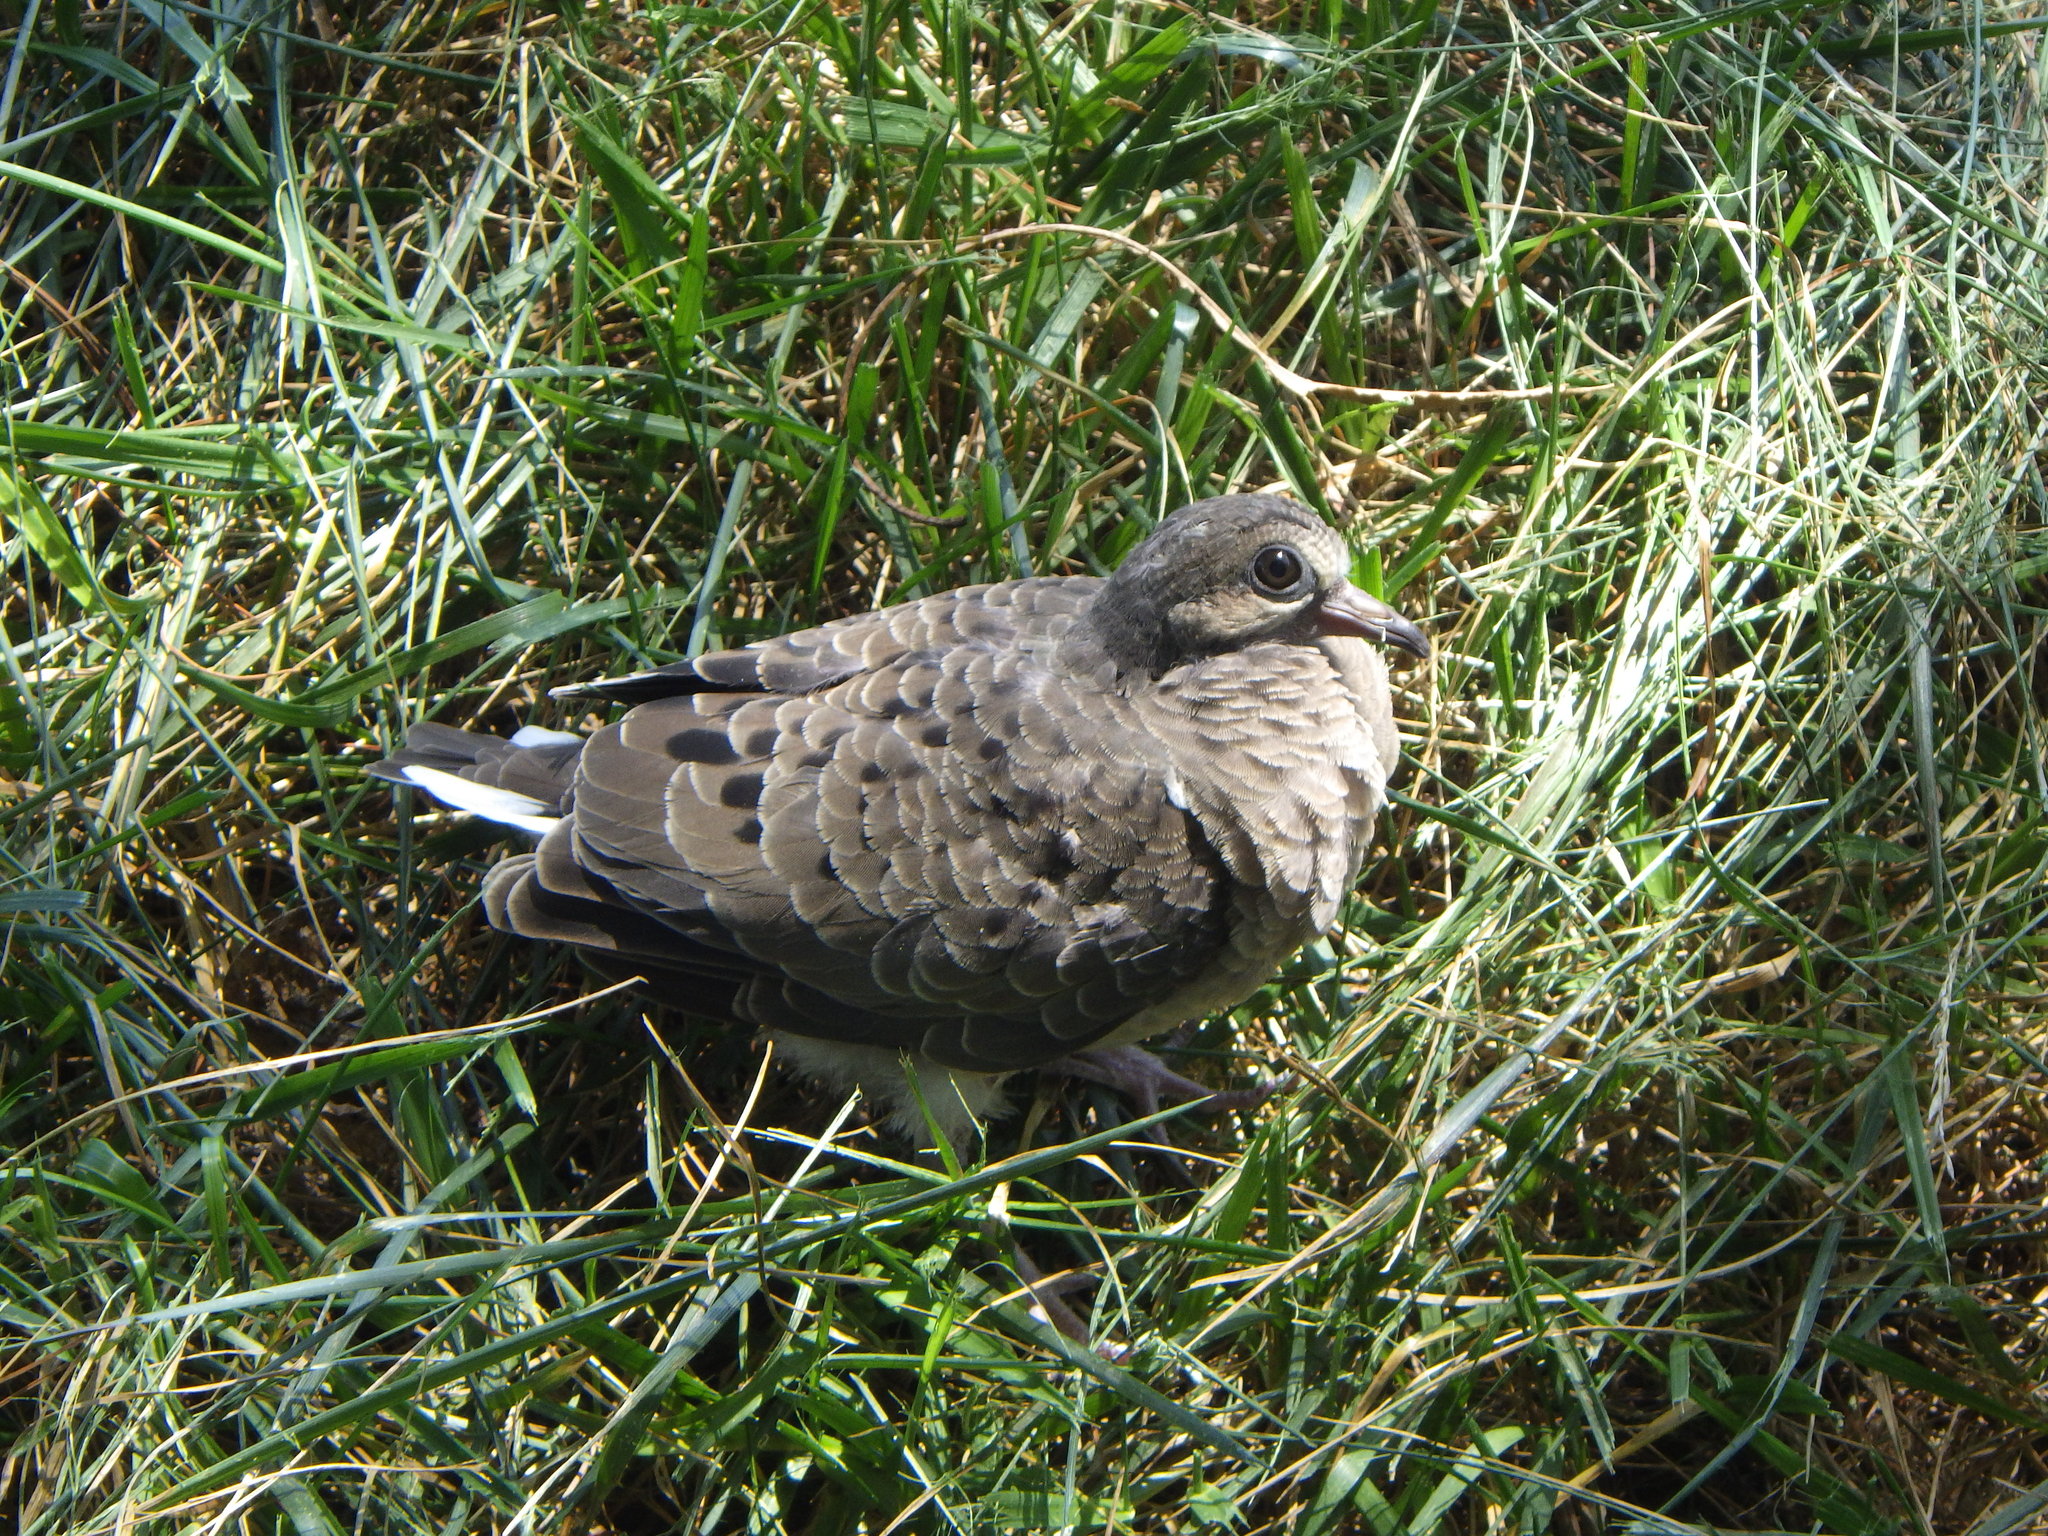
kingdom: Animalia
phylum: Chordata
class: Aves
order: Columbiformes
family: Columbidae
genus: Zenaida
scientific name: Zenaida macroura
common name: Mourning dove
